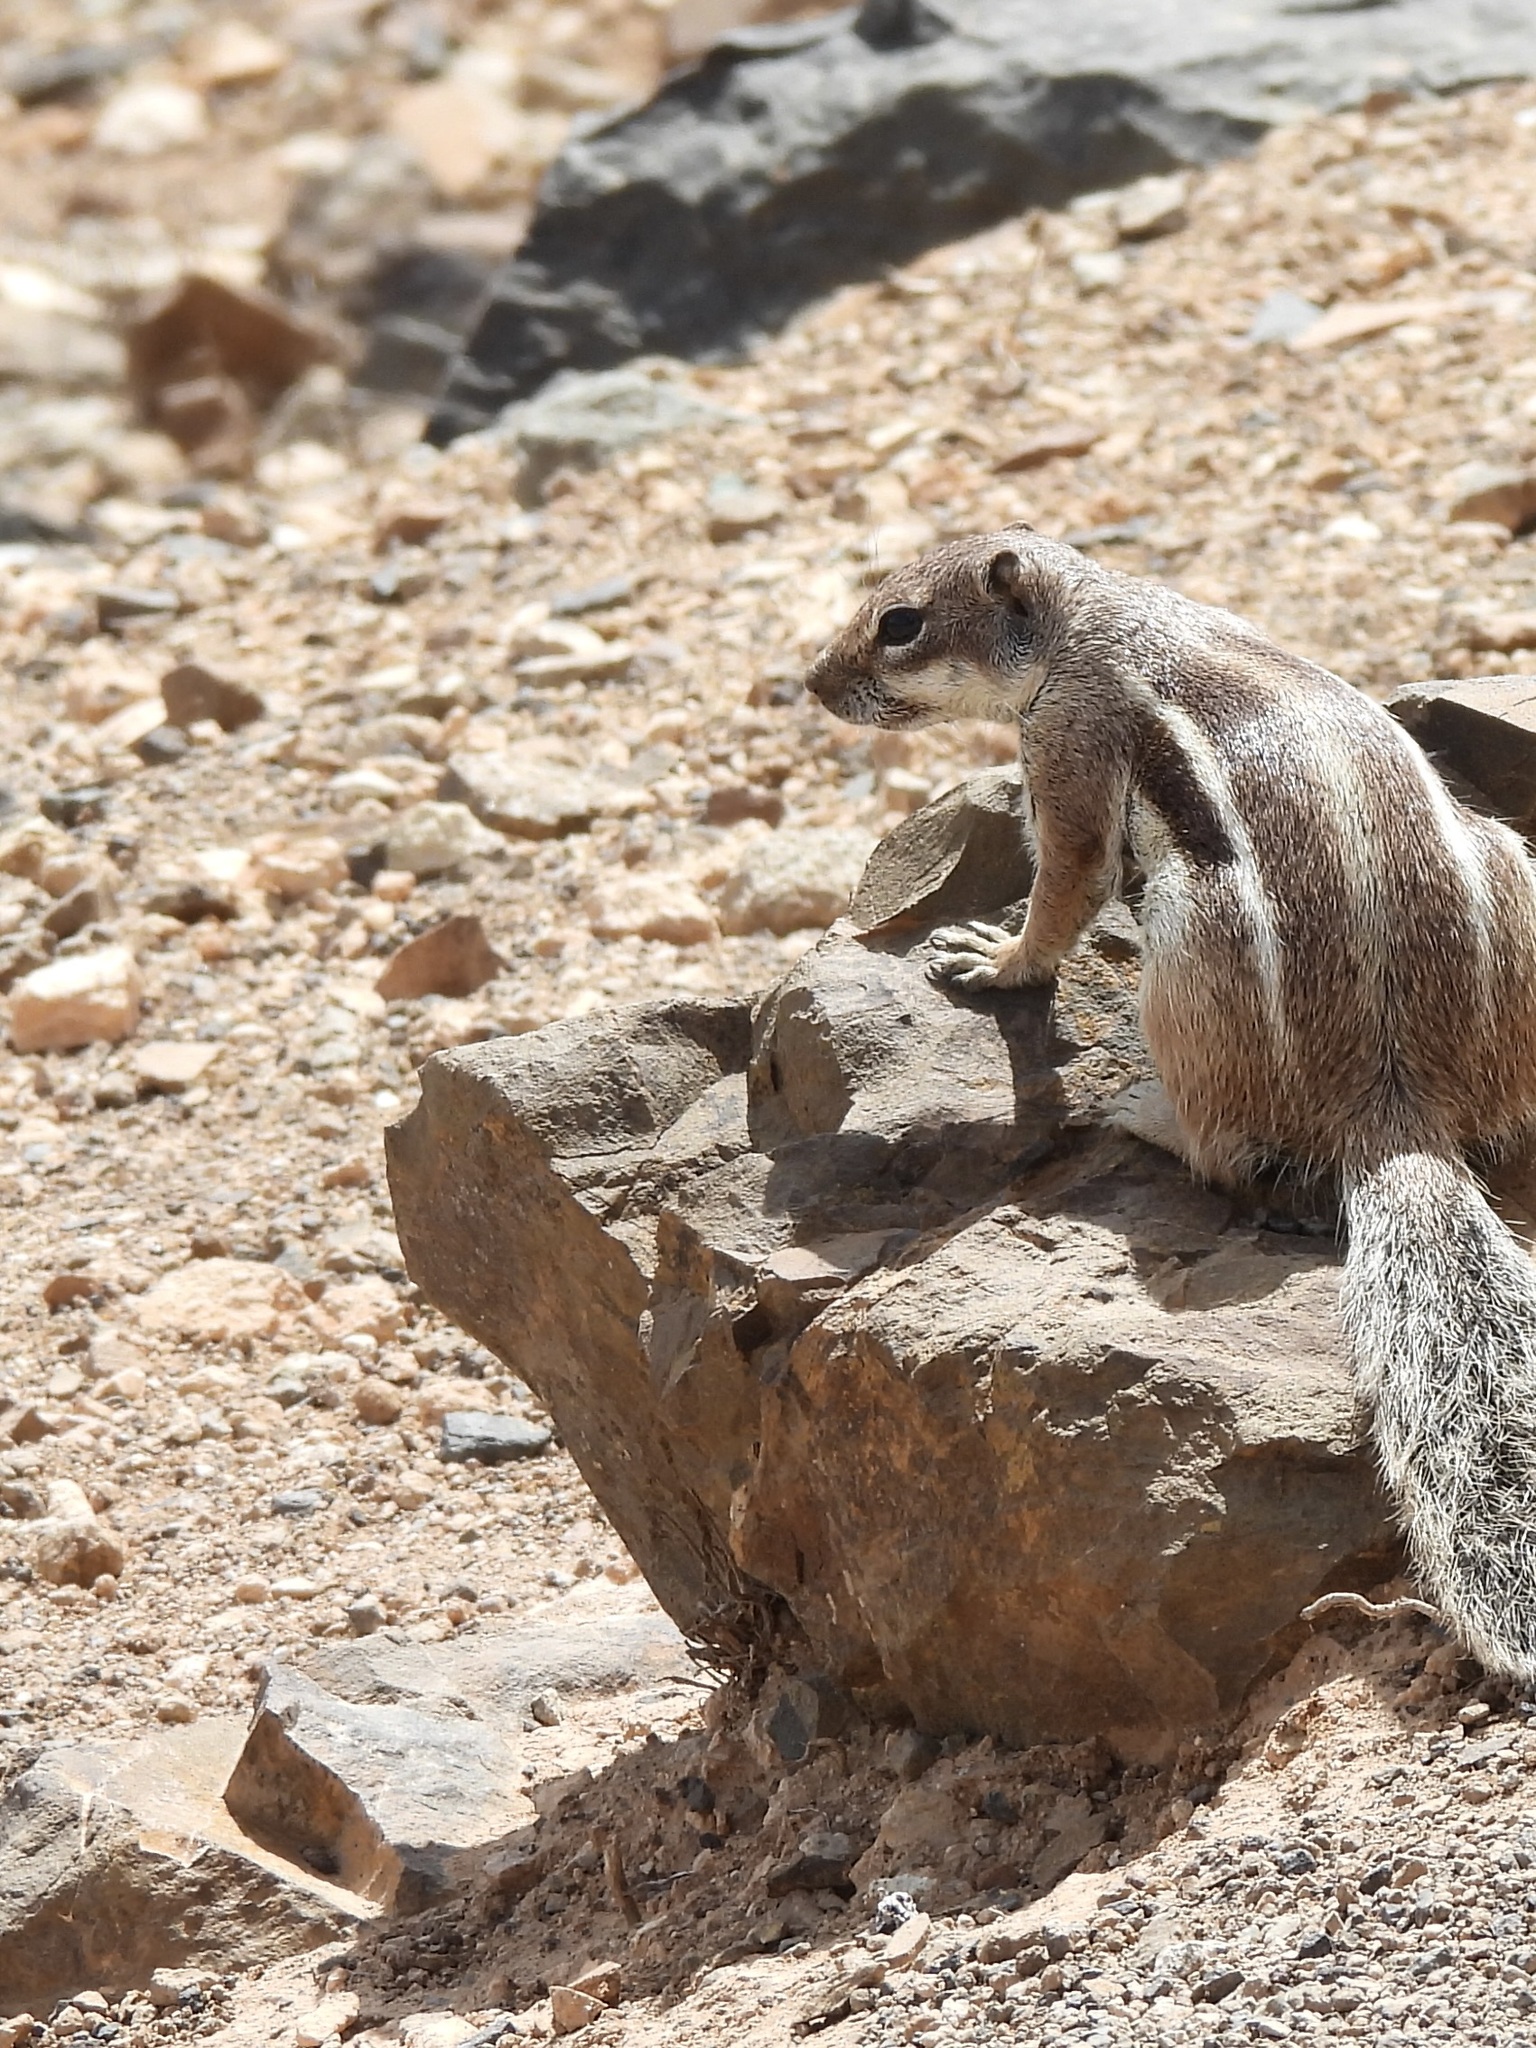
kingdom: Animalia
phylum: Chordata
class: Mammalia
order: Rodentia
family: Sciuridae
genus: Atlantoxerus
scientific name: Atlantoxerus getulus
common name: Barbary ground squirrel
